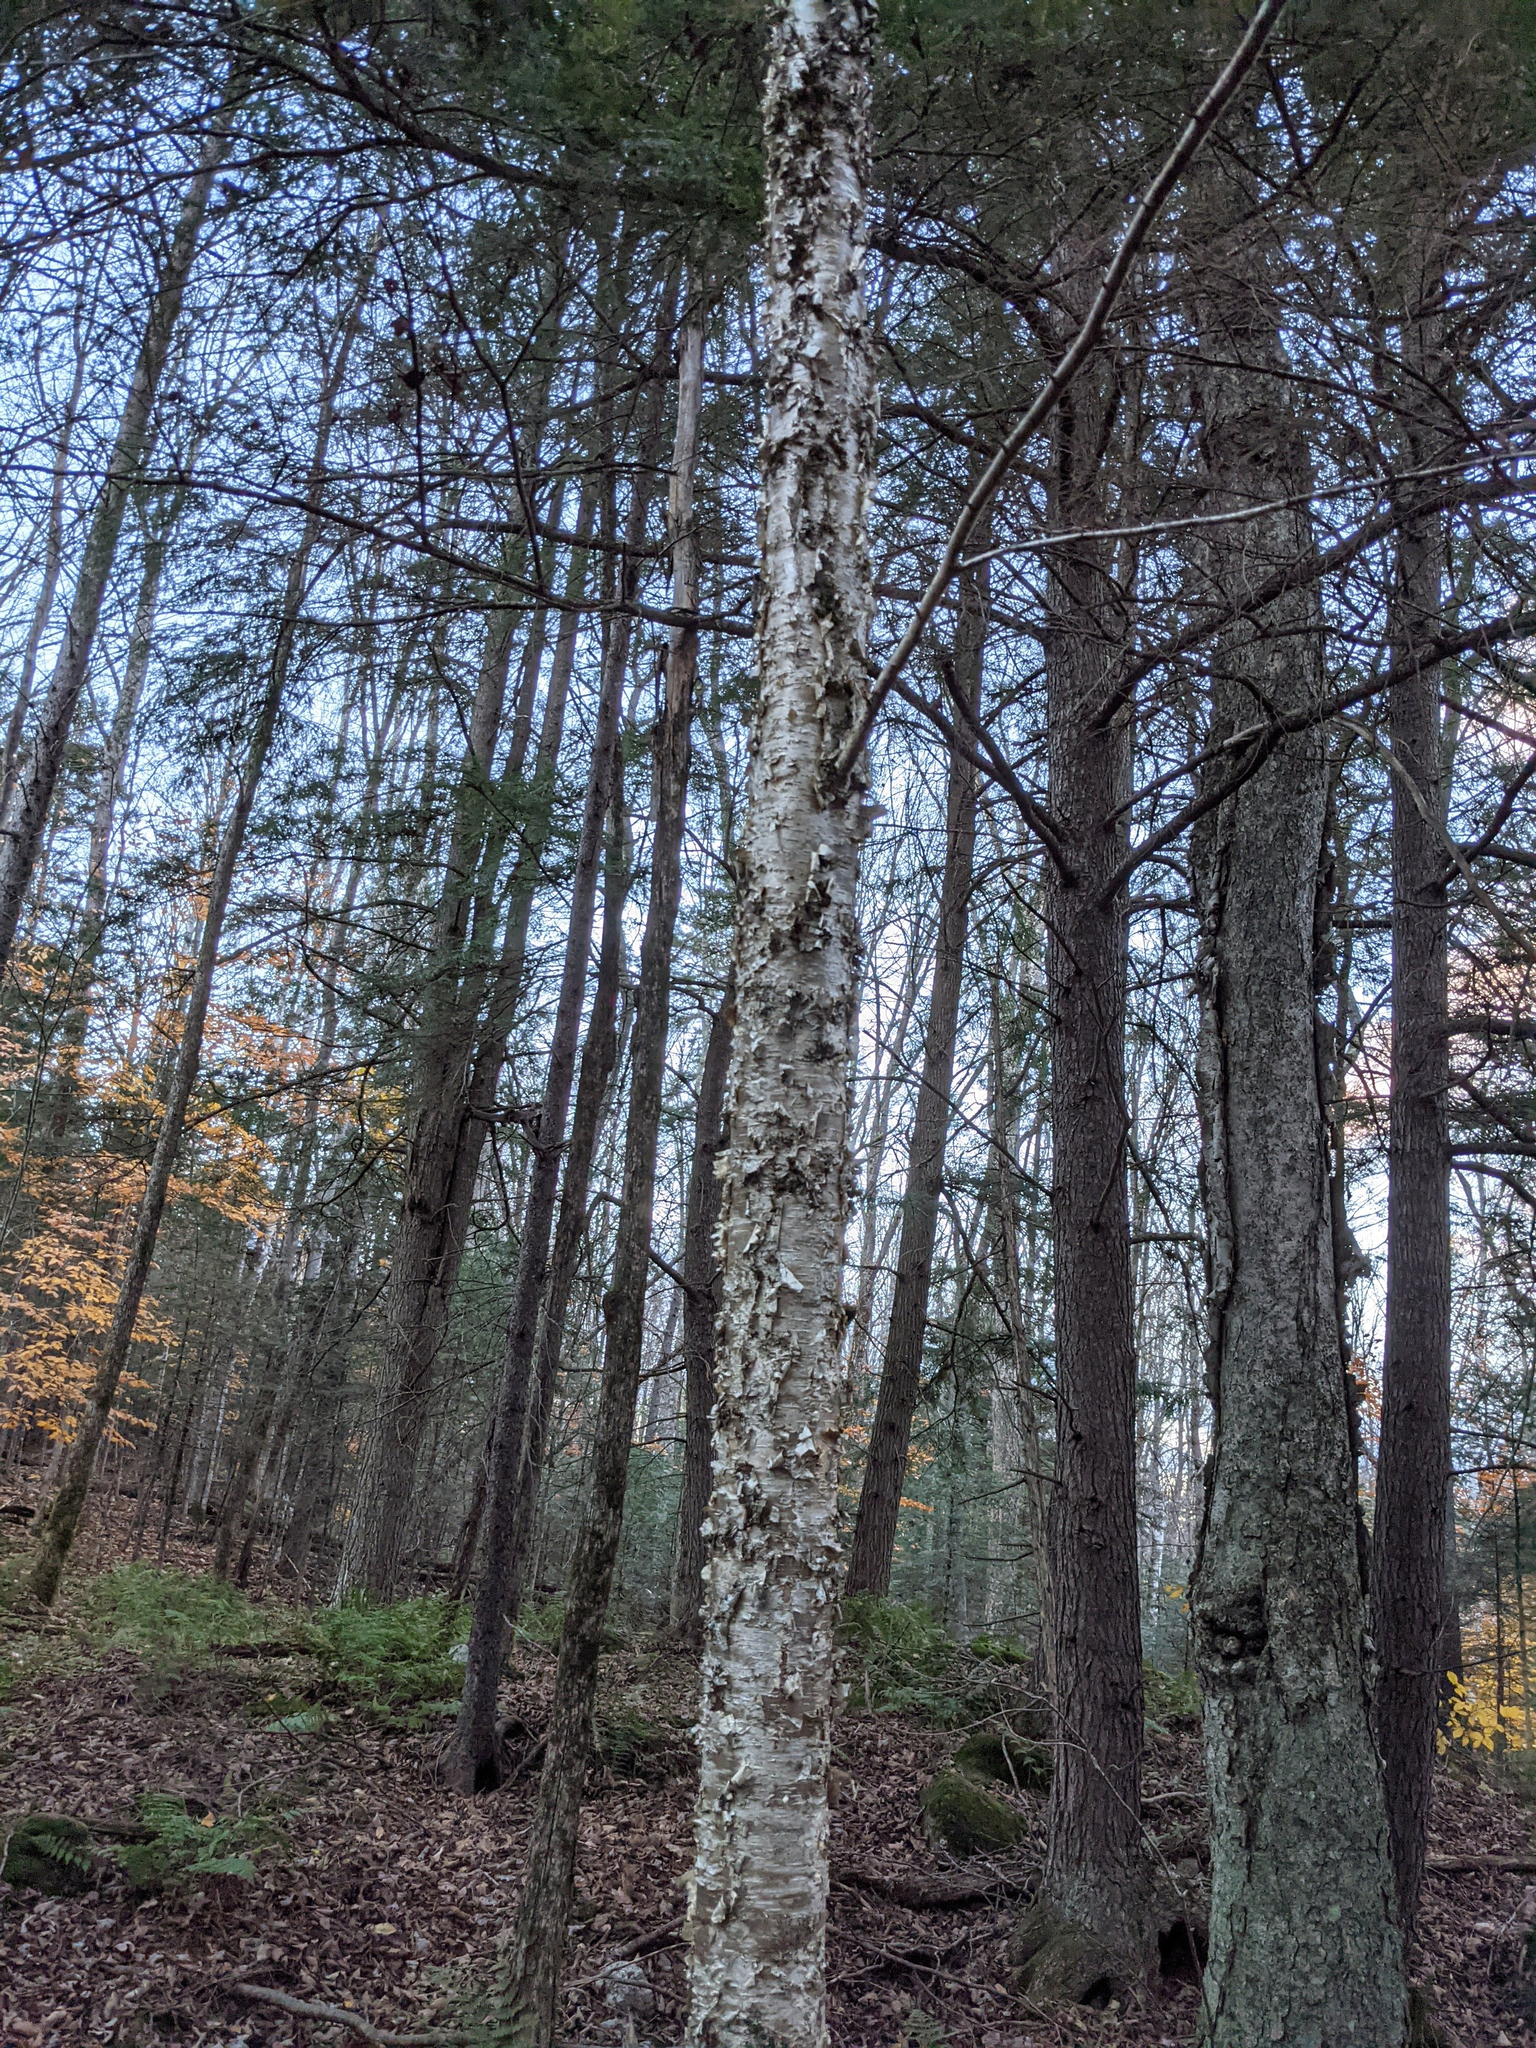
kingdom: Plantae
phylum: Tracheophyta
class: Magnoliopsida
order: Fagales
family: Betulaceae
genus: Betula
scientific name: Betula alleghaniensis
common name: Yellow birch
